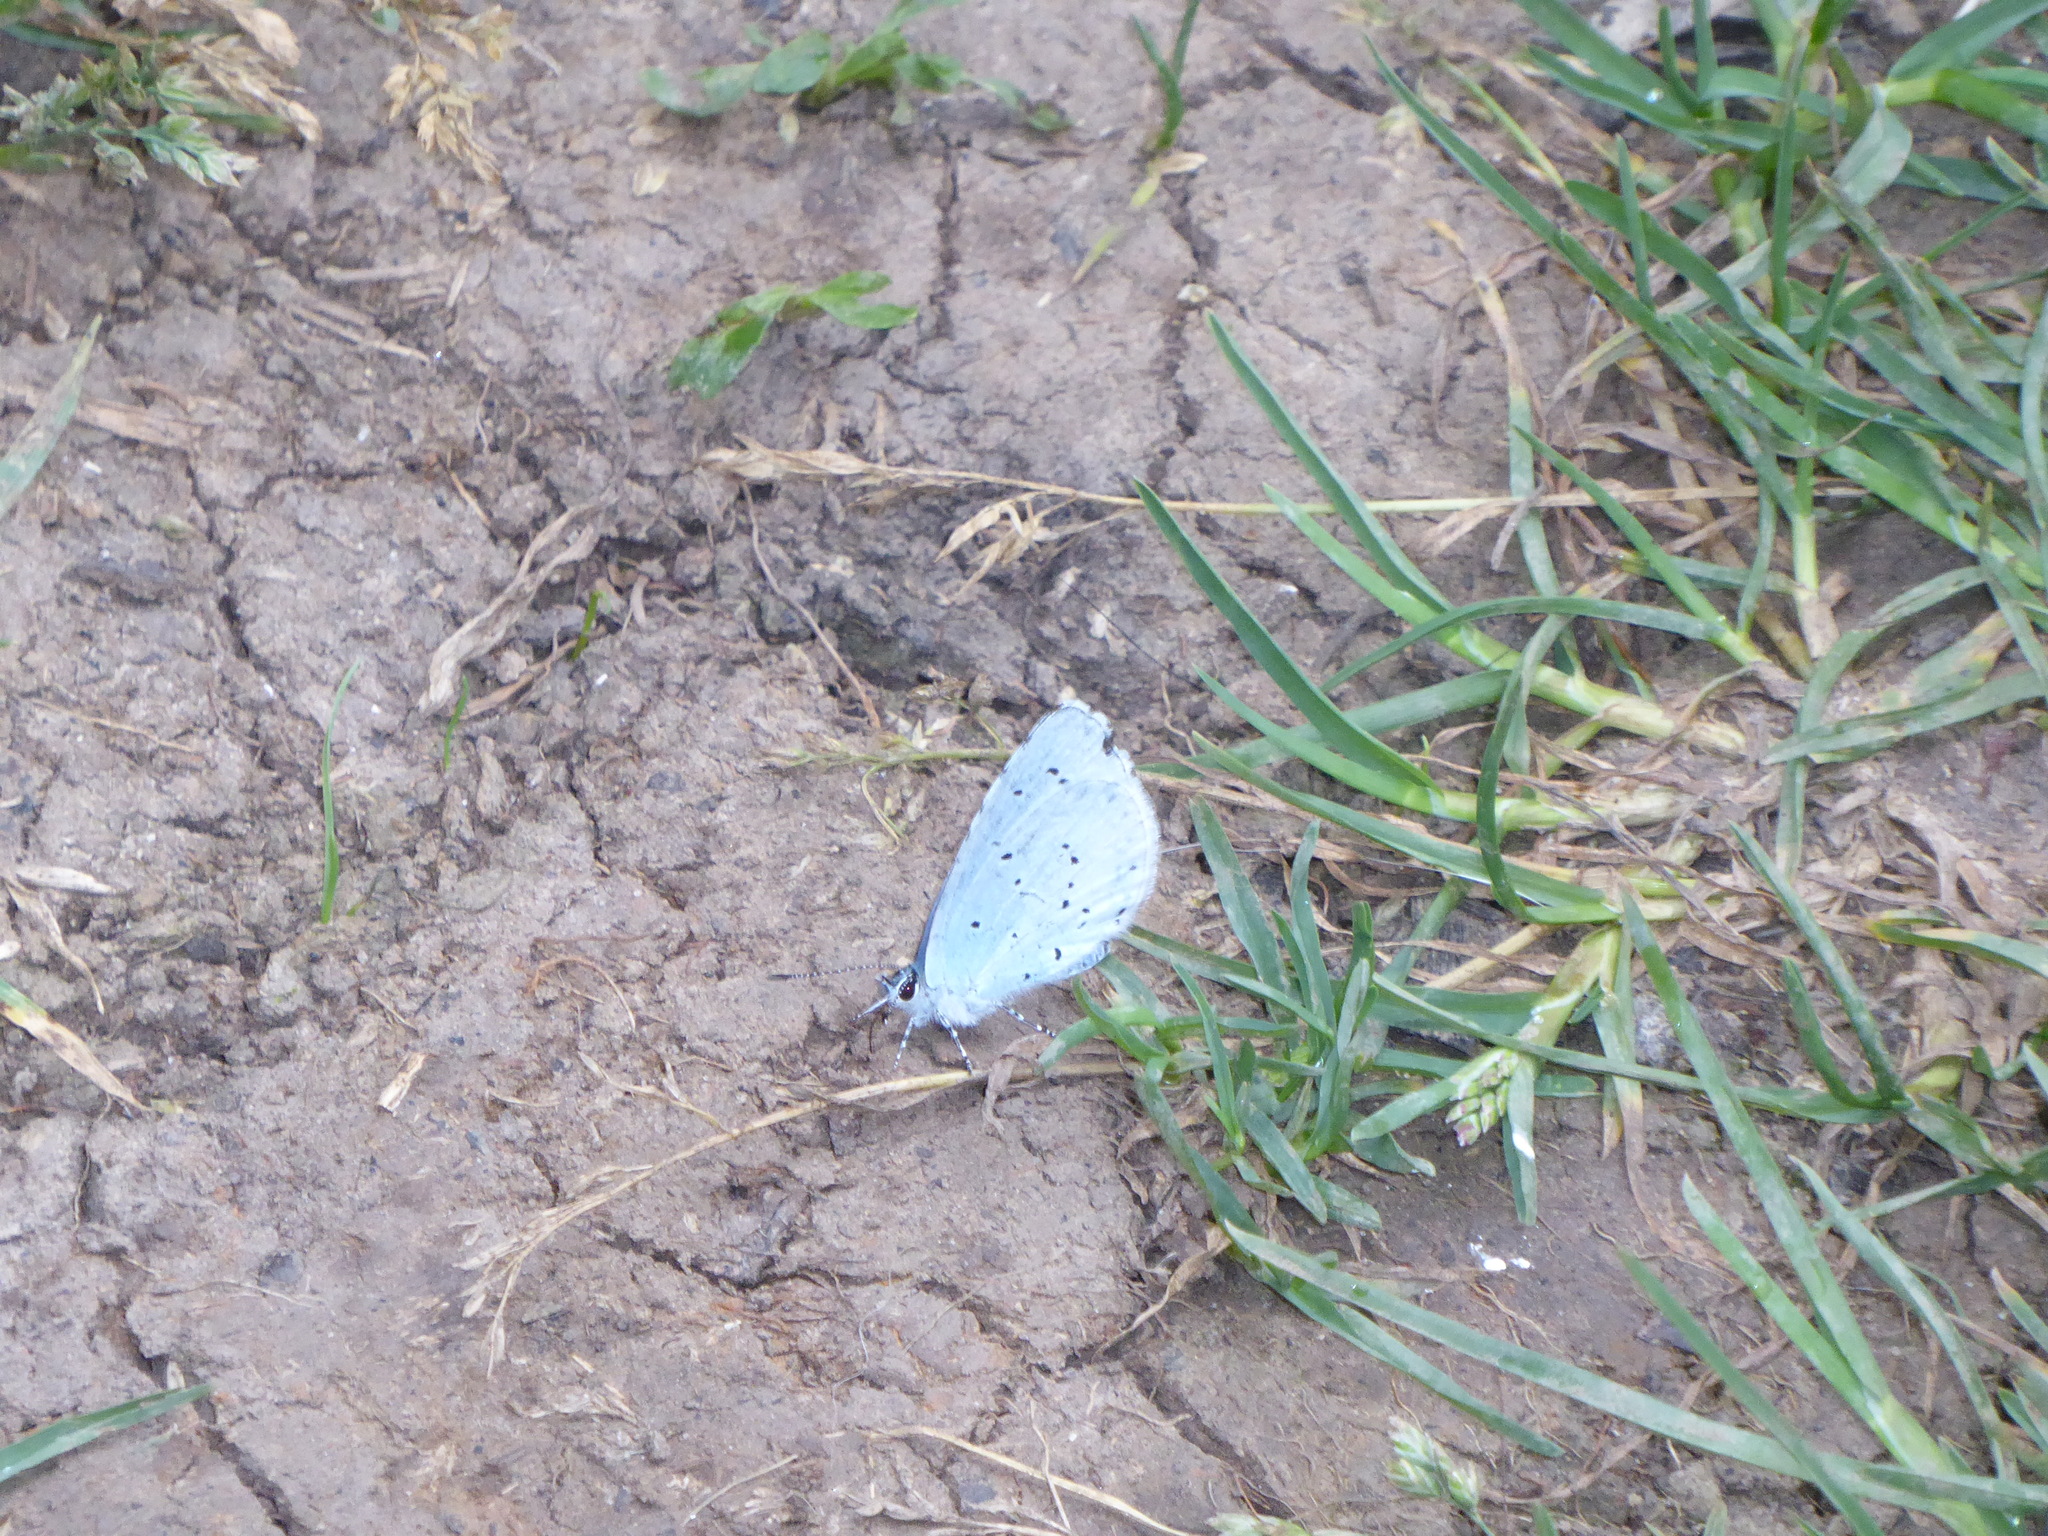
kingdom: Animalia
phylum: Arthropoda
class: Insecta
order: Lepidoptera
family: Lycaenidae
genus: Celastrina
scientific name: Celastrina argiolus
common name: Holly blue
